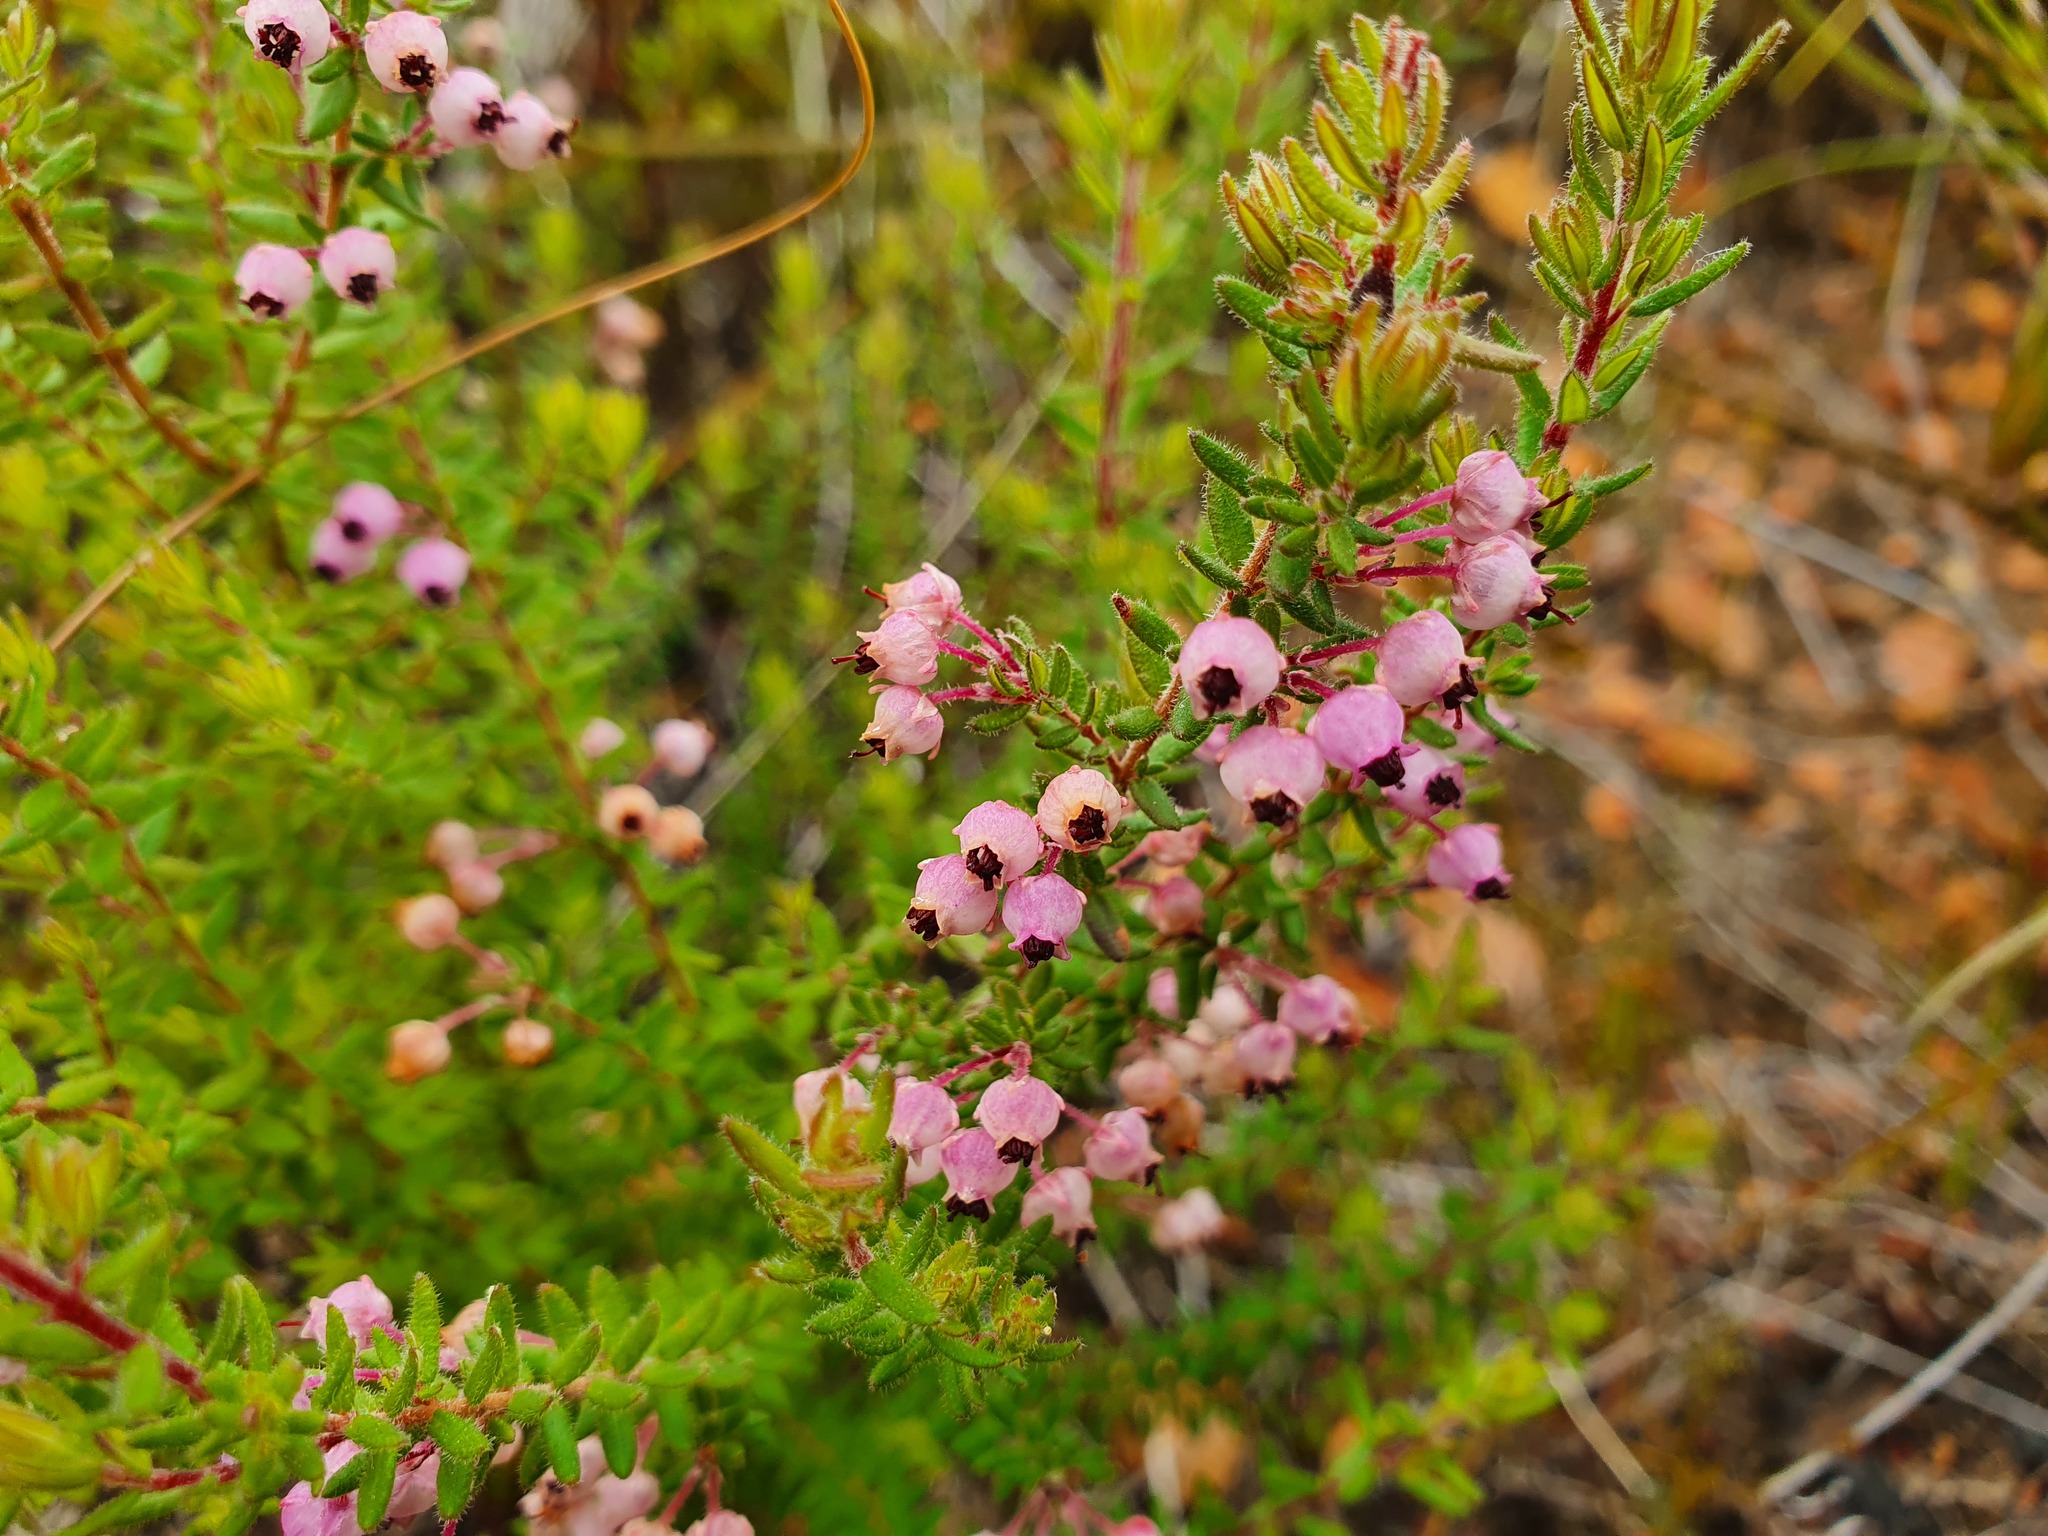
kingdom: Plantae
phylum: Tracheophyta
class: Magnoliopsida
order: Ericales
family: Ericaceae
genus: Erica
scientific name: Erica grata
